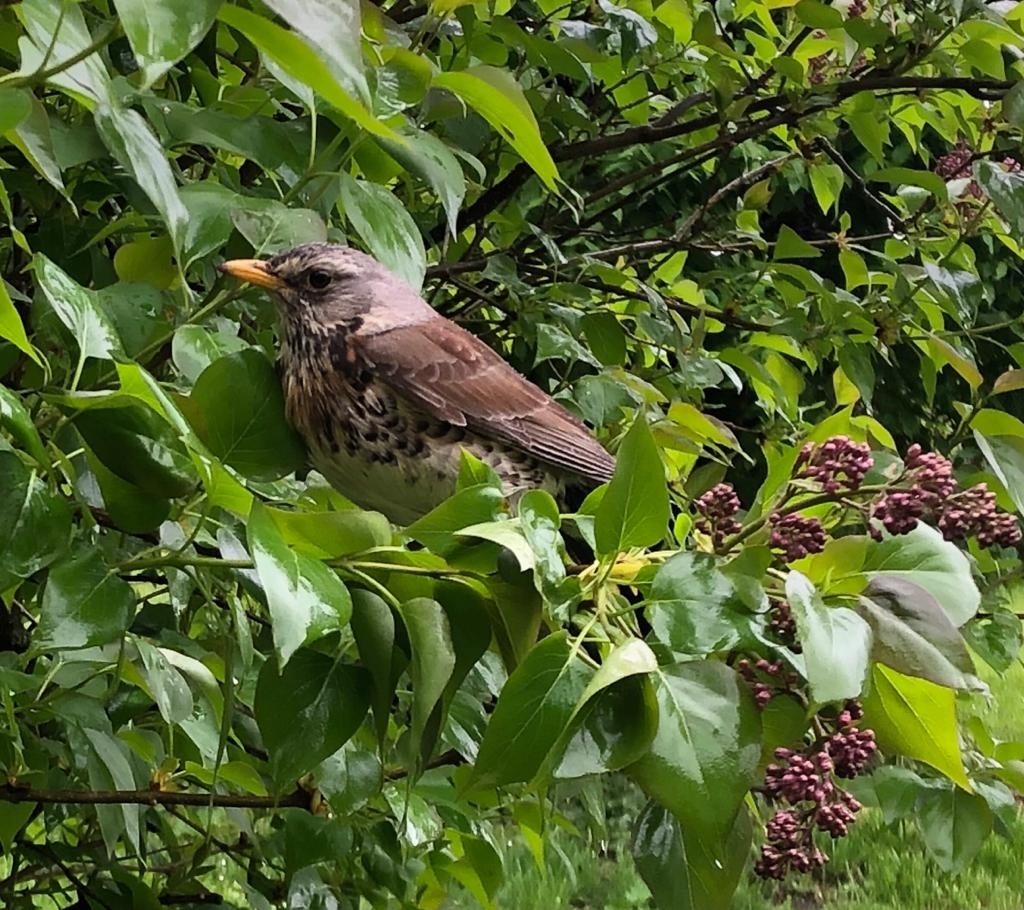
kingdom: Animalia
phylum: Chordata
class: Aves
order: Passeriformes
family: Turdidae
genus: Turdus
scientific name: Turdus pilaris
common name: Fieldfare
